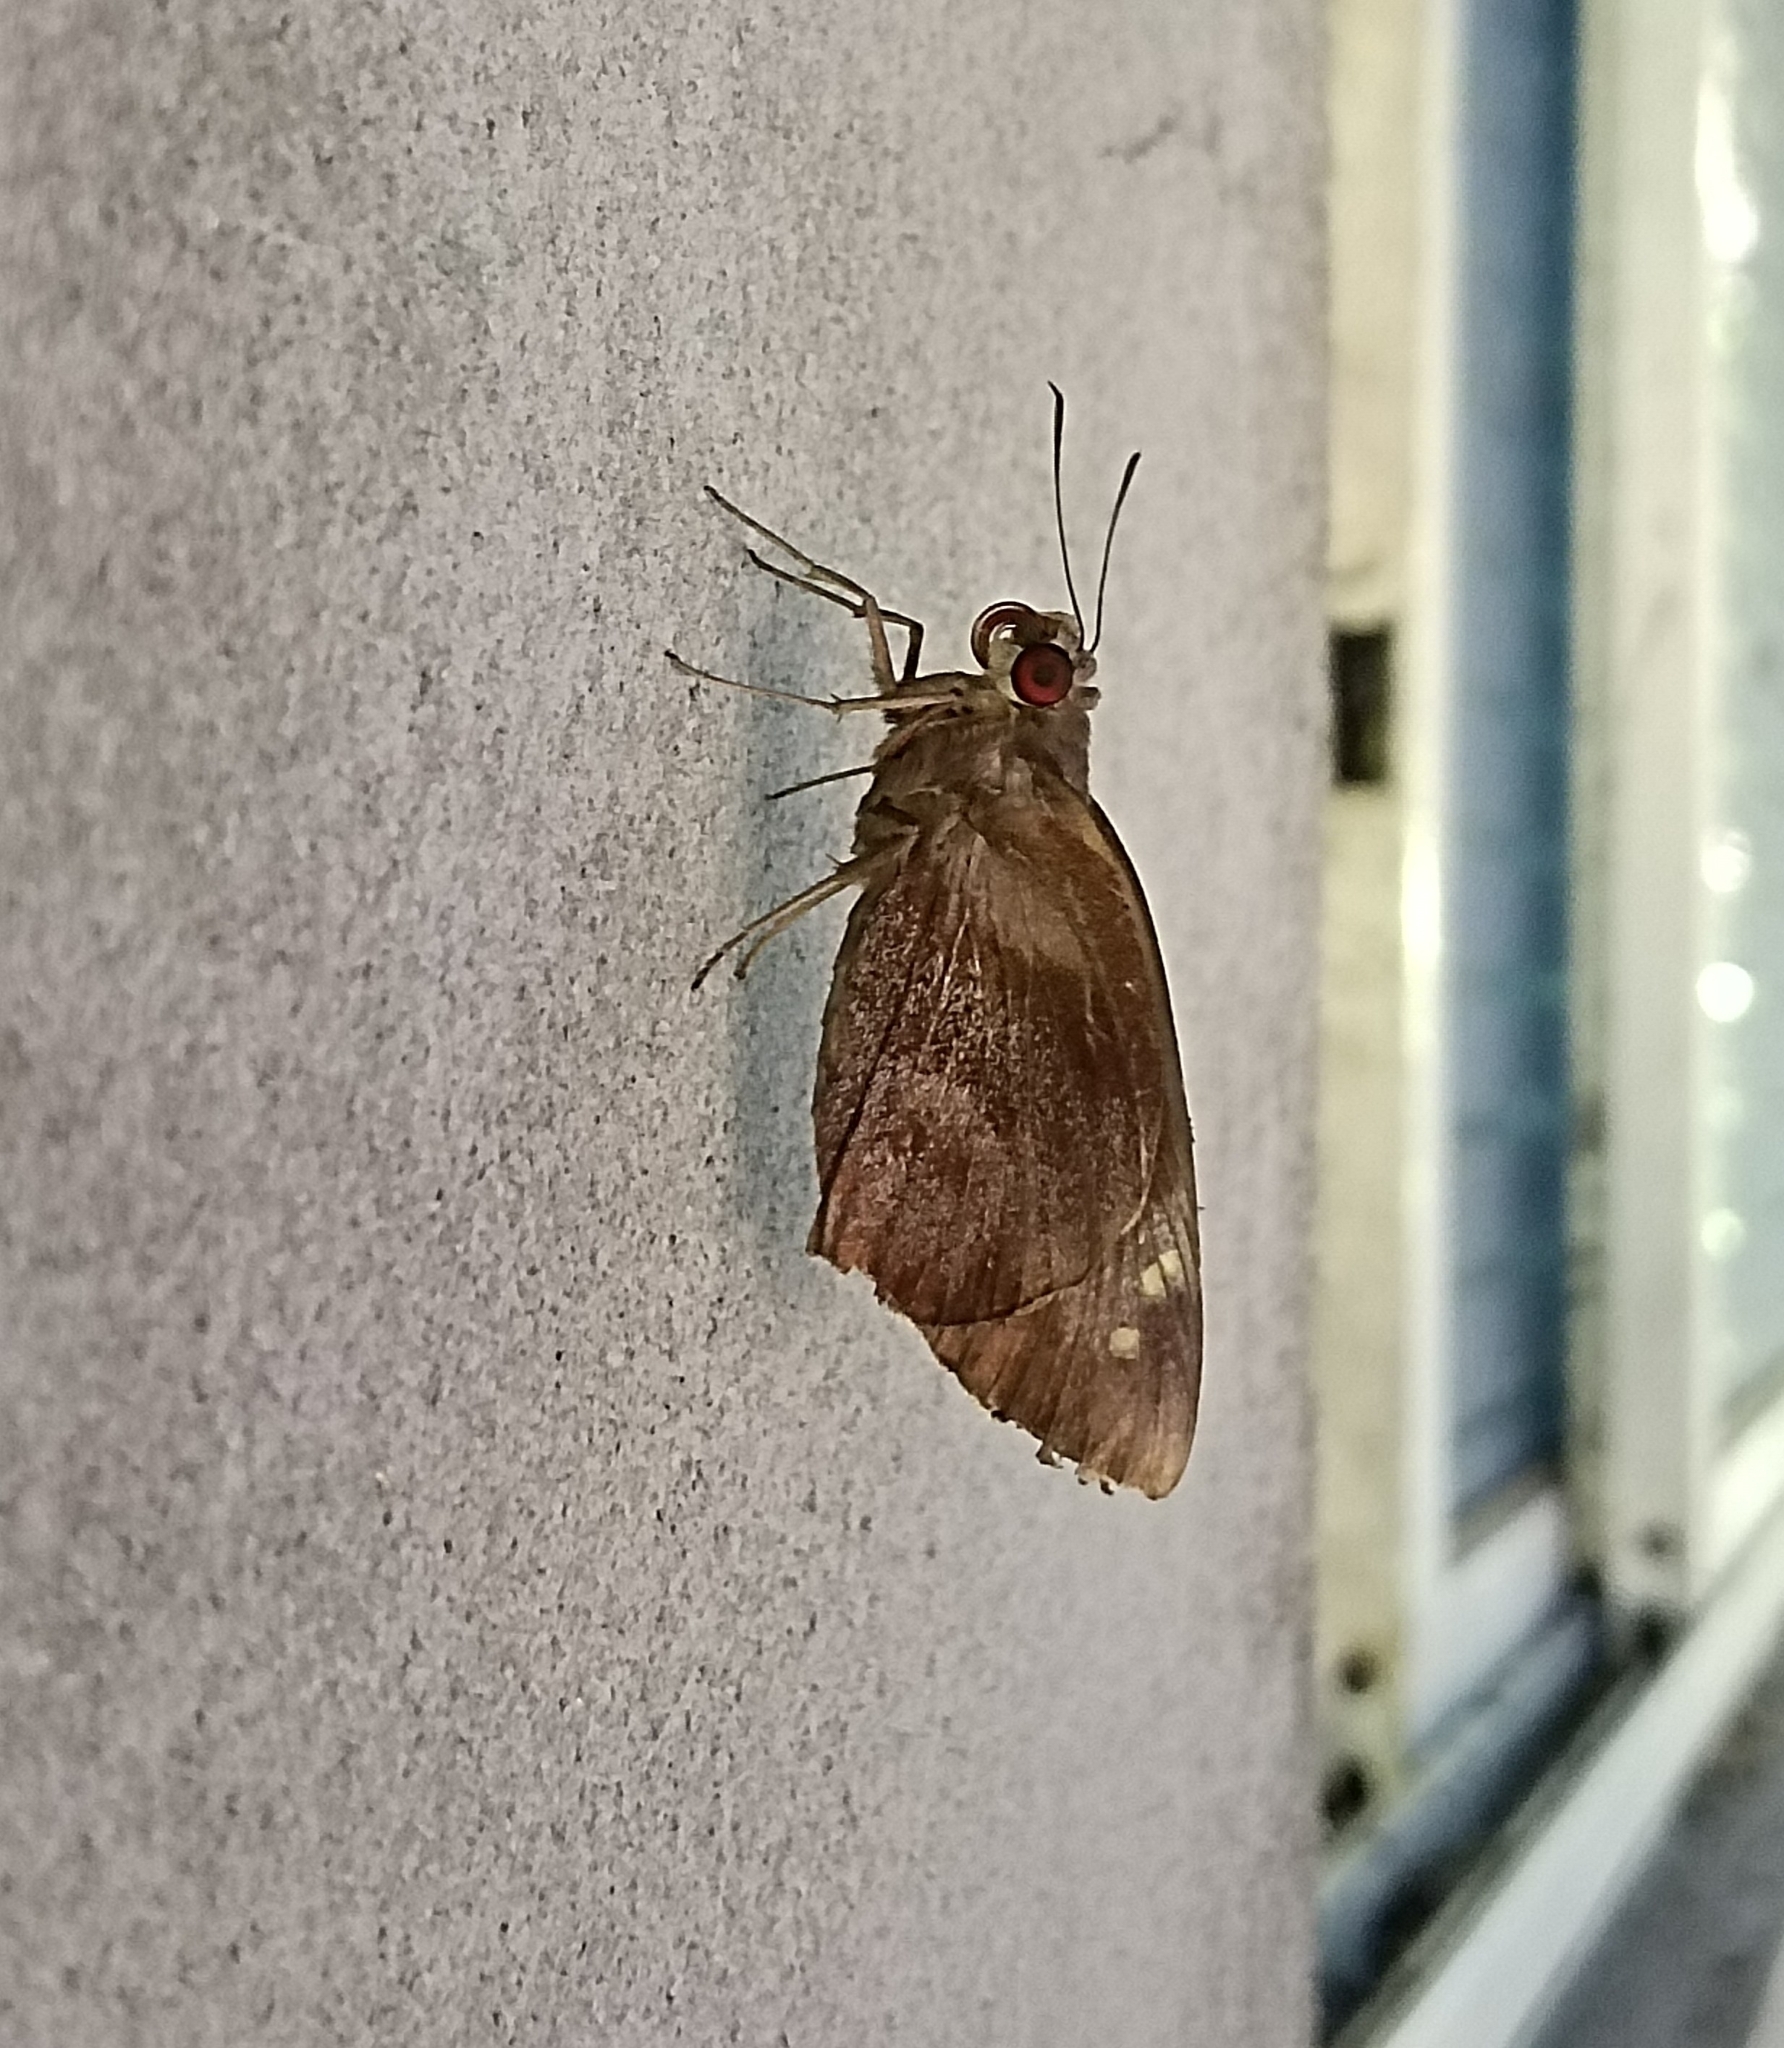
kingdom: Animalia
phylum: Arthropoda
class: Insecta
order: Lepidoptera
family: Hesperiidae
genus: Gangara
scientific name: Gangara thyrsis
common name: Giant redeye
